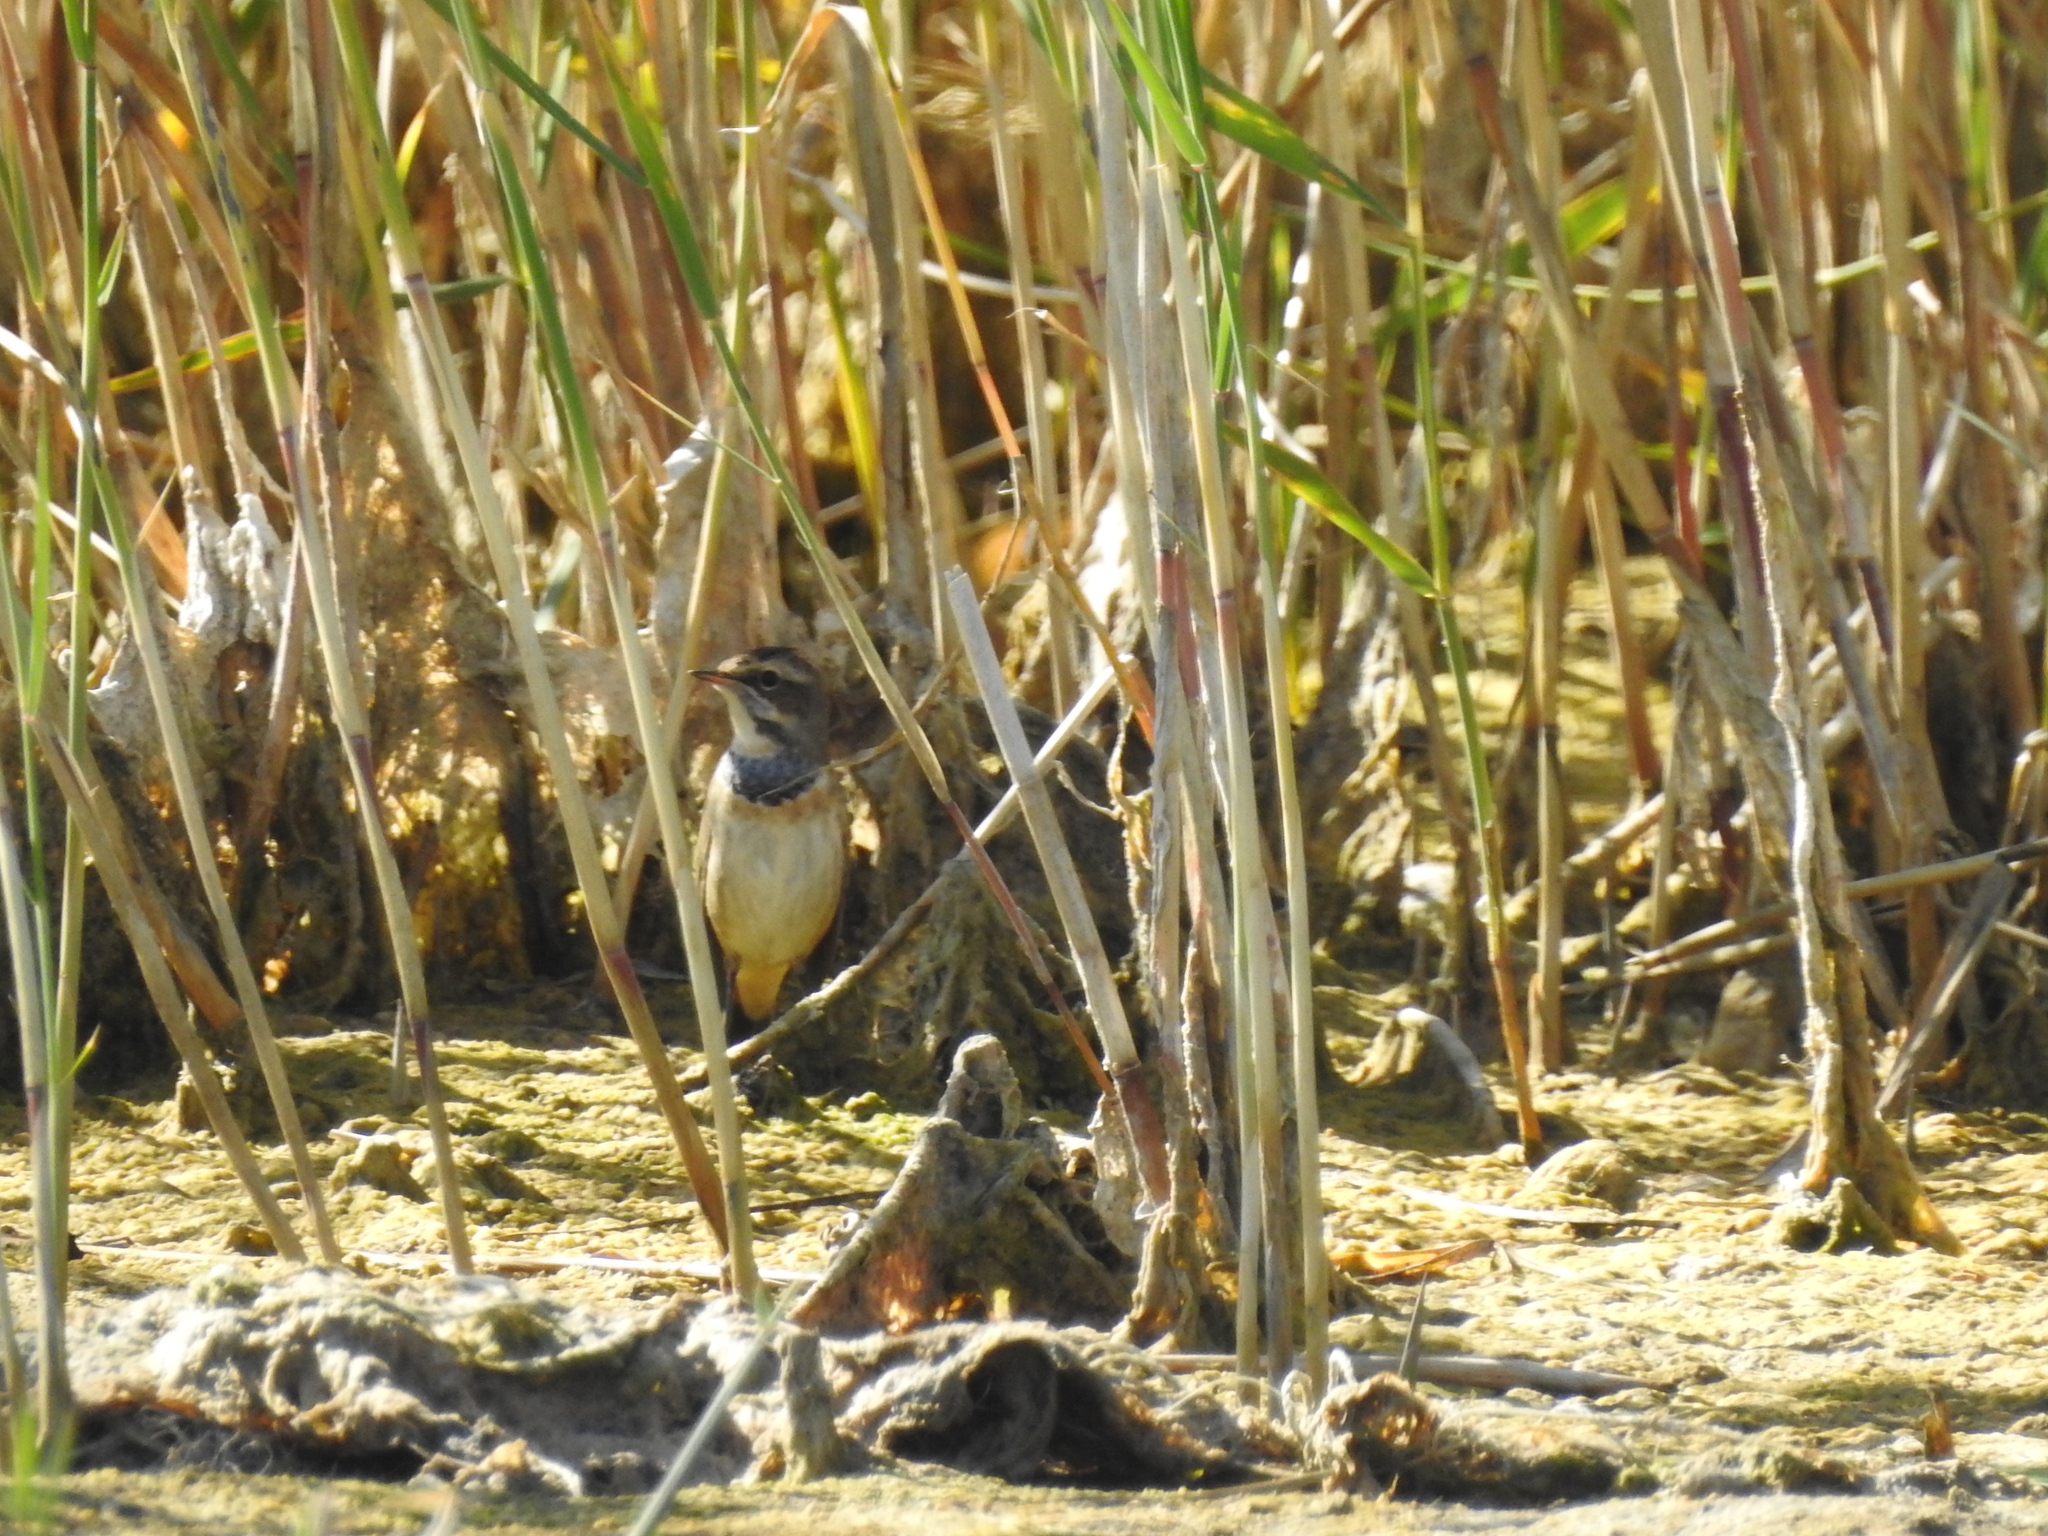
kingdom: Animalia
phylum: Chordata
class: Aves
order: Passeriformes
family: Muscicapidae
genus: Luscinia
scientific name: Luscinia svecica
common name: Bluethroat
